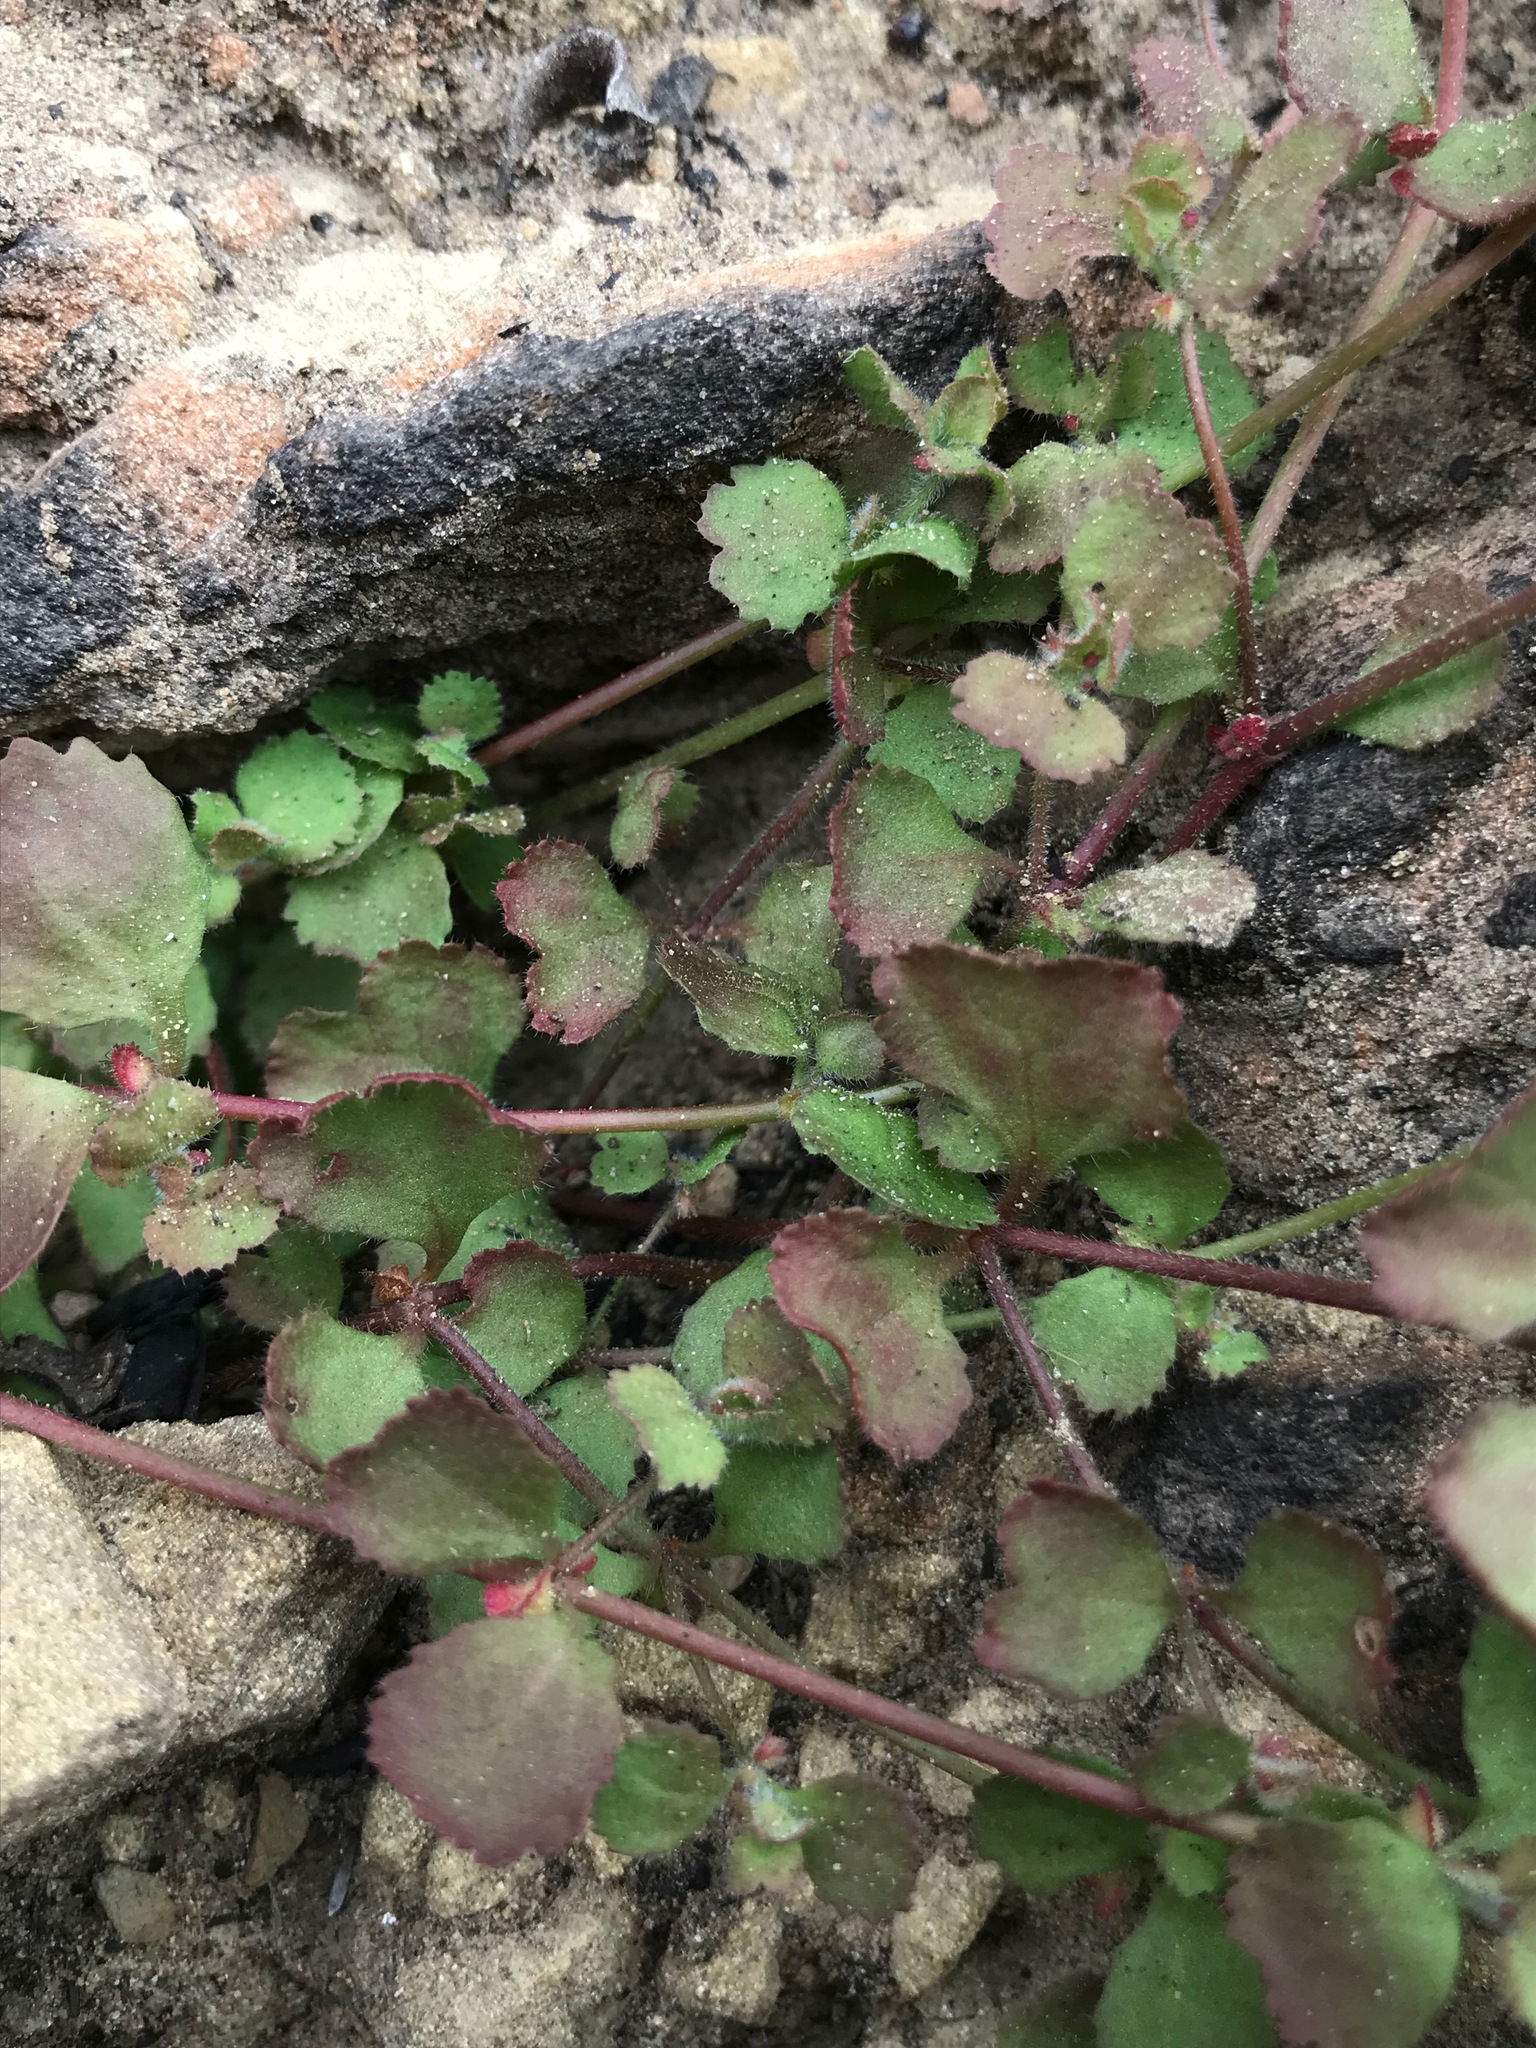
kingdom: Plantae
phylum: Tracheophyta
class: Magnoliopsida
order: Caryophyllales
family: Polygonaceae
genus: Pterostegia
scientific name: Pterostegia drymarioides
